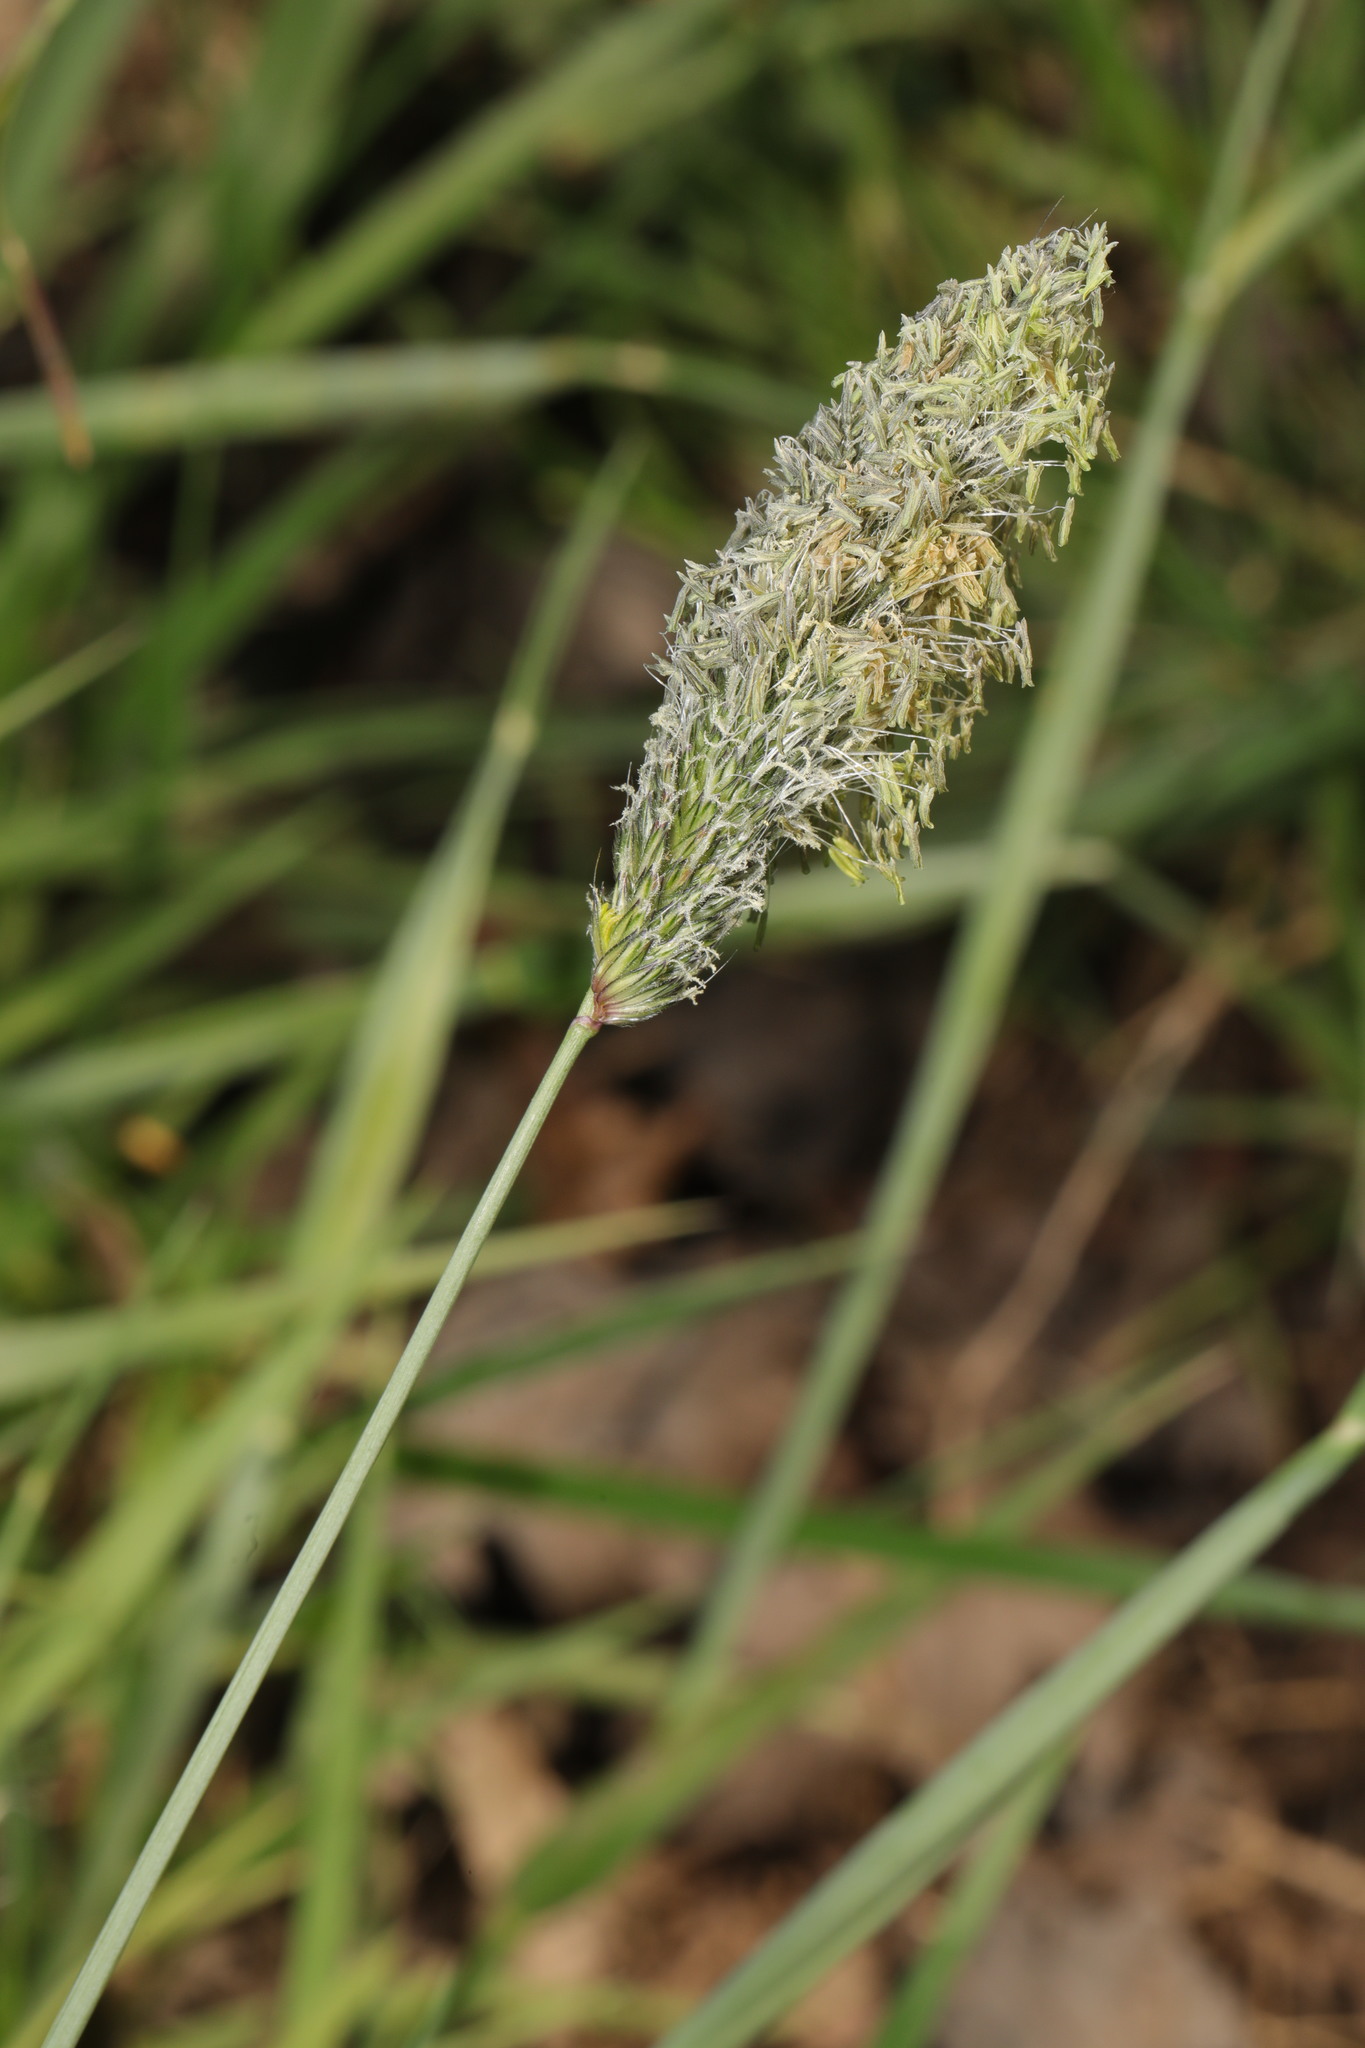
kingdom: Plantae
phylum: Tracheophyta
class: Liliopsida
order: Poales
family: Poaceae
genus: Alopecurus
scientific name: Alopecurus pratensis
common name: Meadow foxtail
